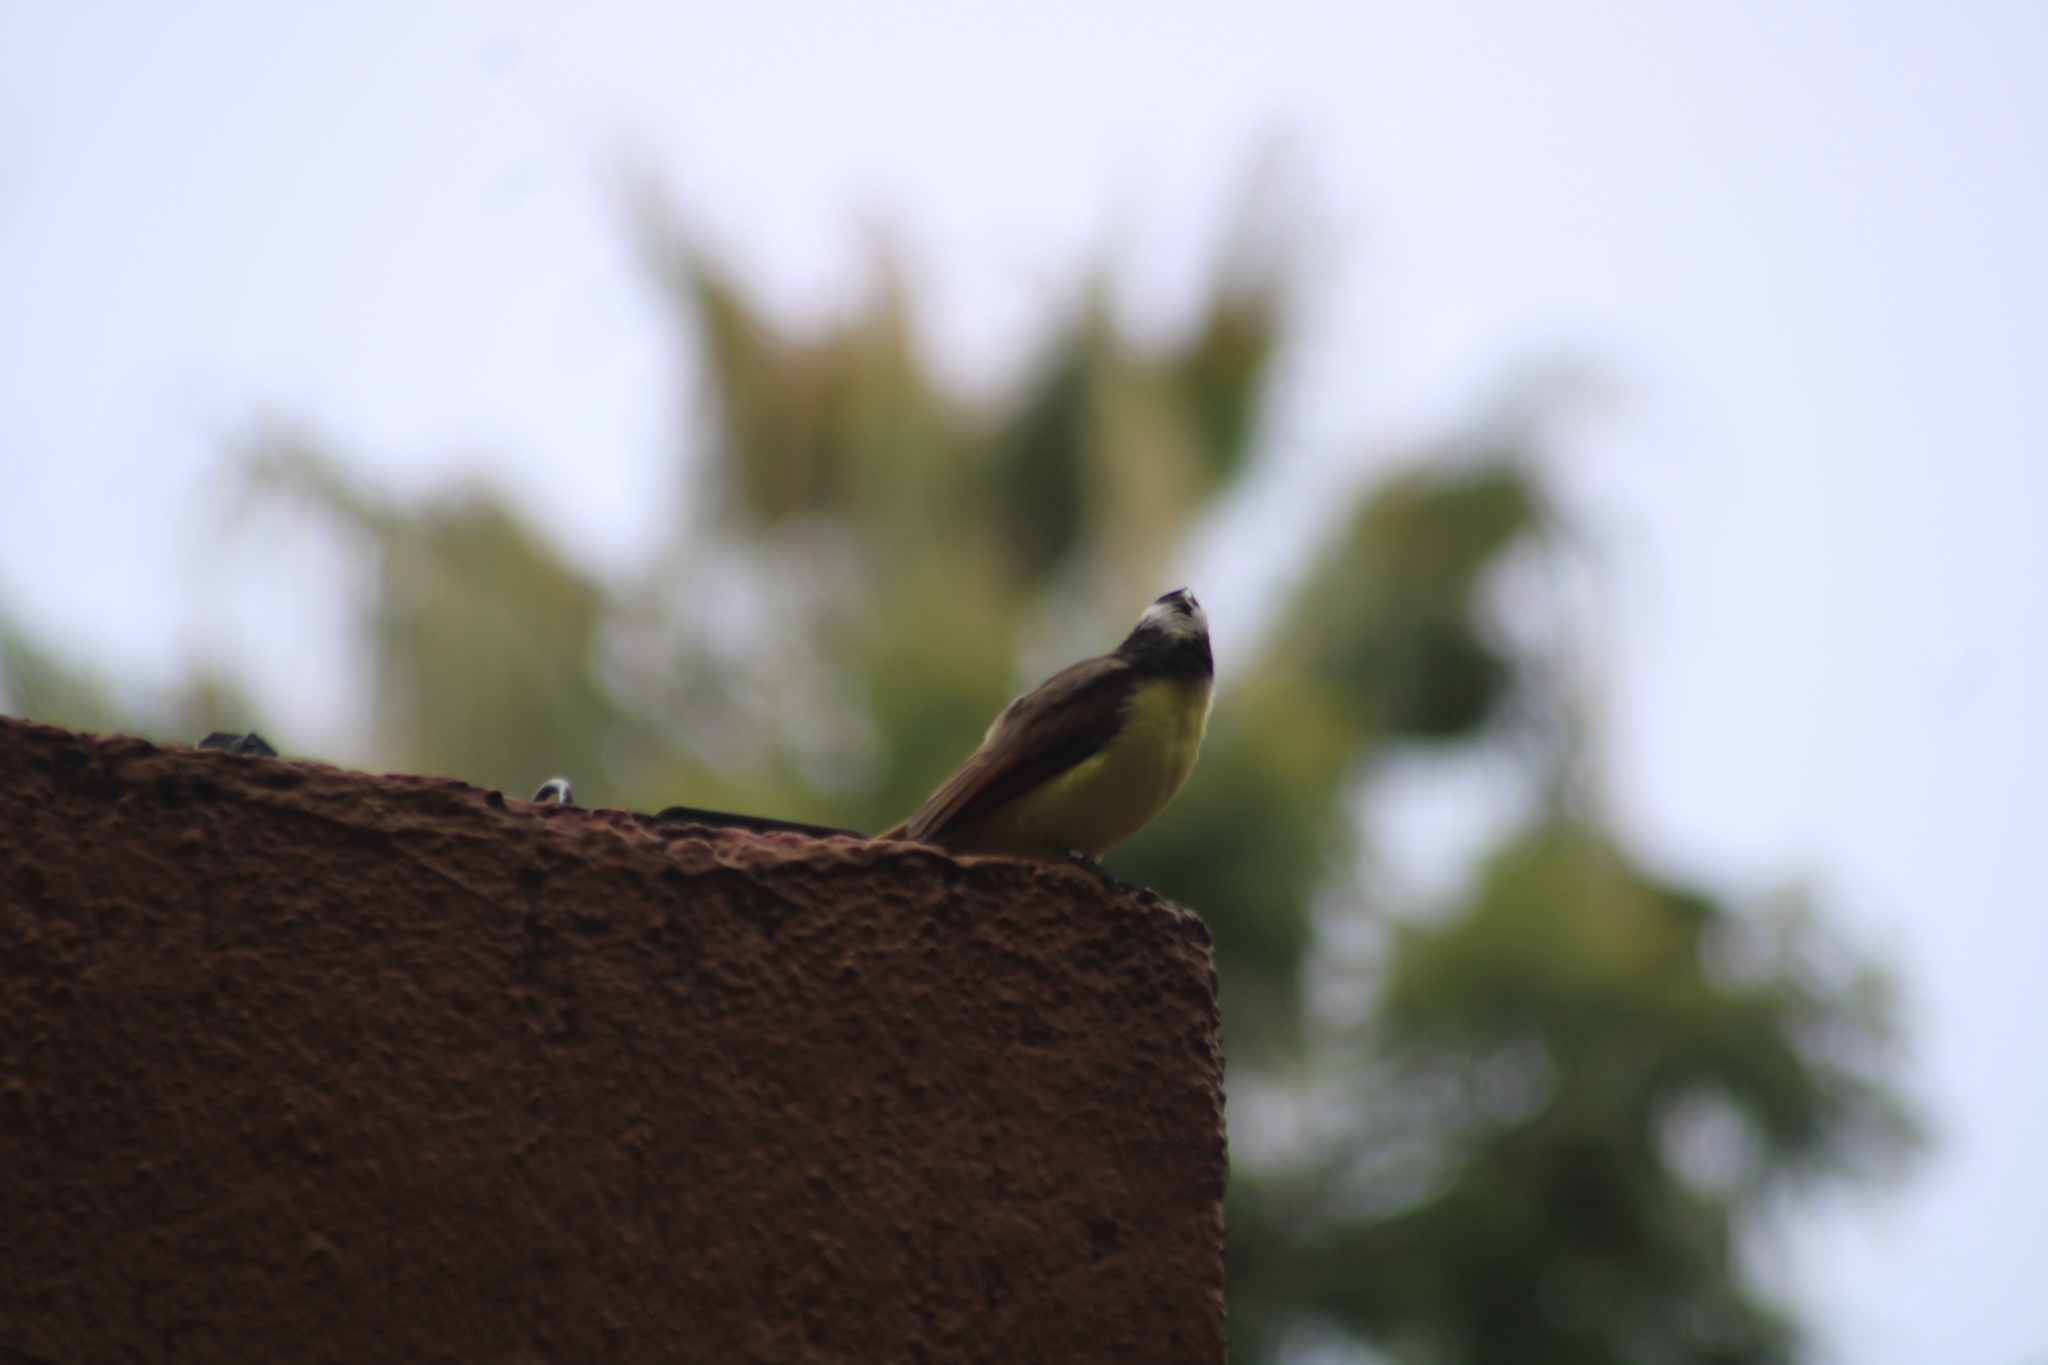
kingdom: Animalia
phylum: Chordata
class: Aves
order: Passeriformes
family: Tyrannidae
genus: Myiozetetes
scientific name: Myiozetetes similis
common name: Social flycatcher
